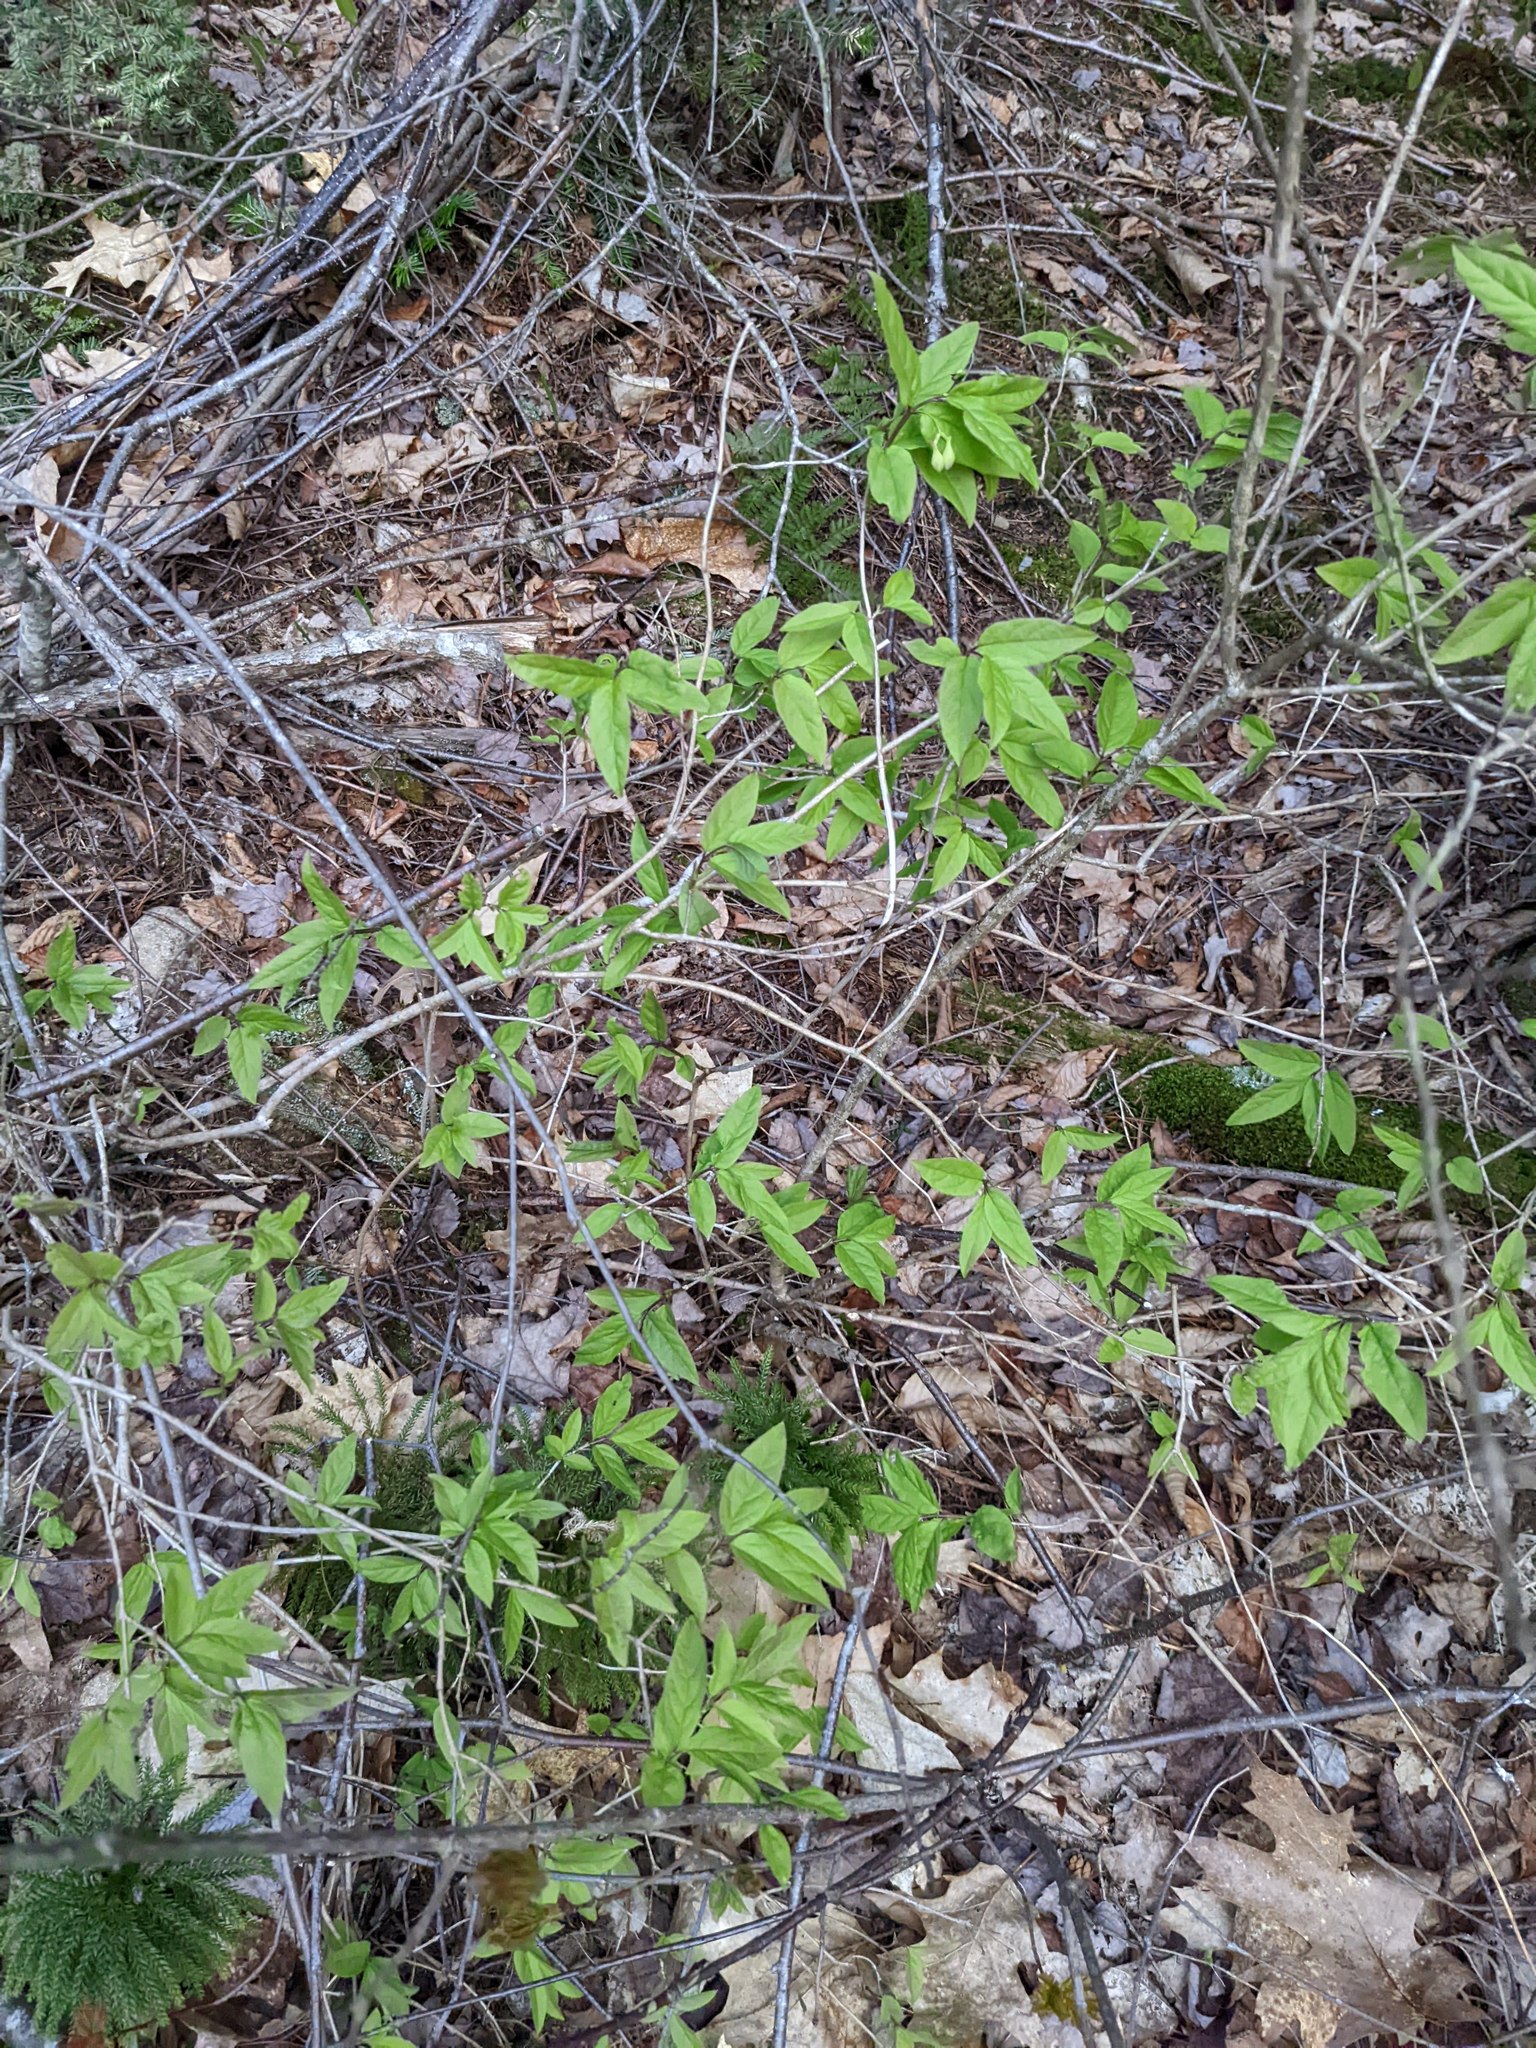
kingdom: Plantae
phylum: Tracheophyta
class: Magnoliopsida
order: Dipsacales
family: Caprifoliaceae
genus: Lonicera
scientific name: Lonicera canadensis
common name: American fly-honeysuckle
